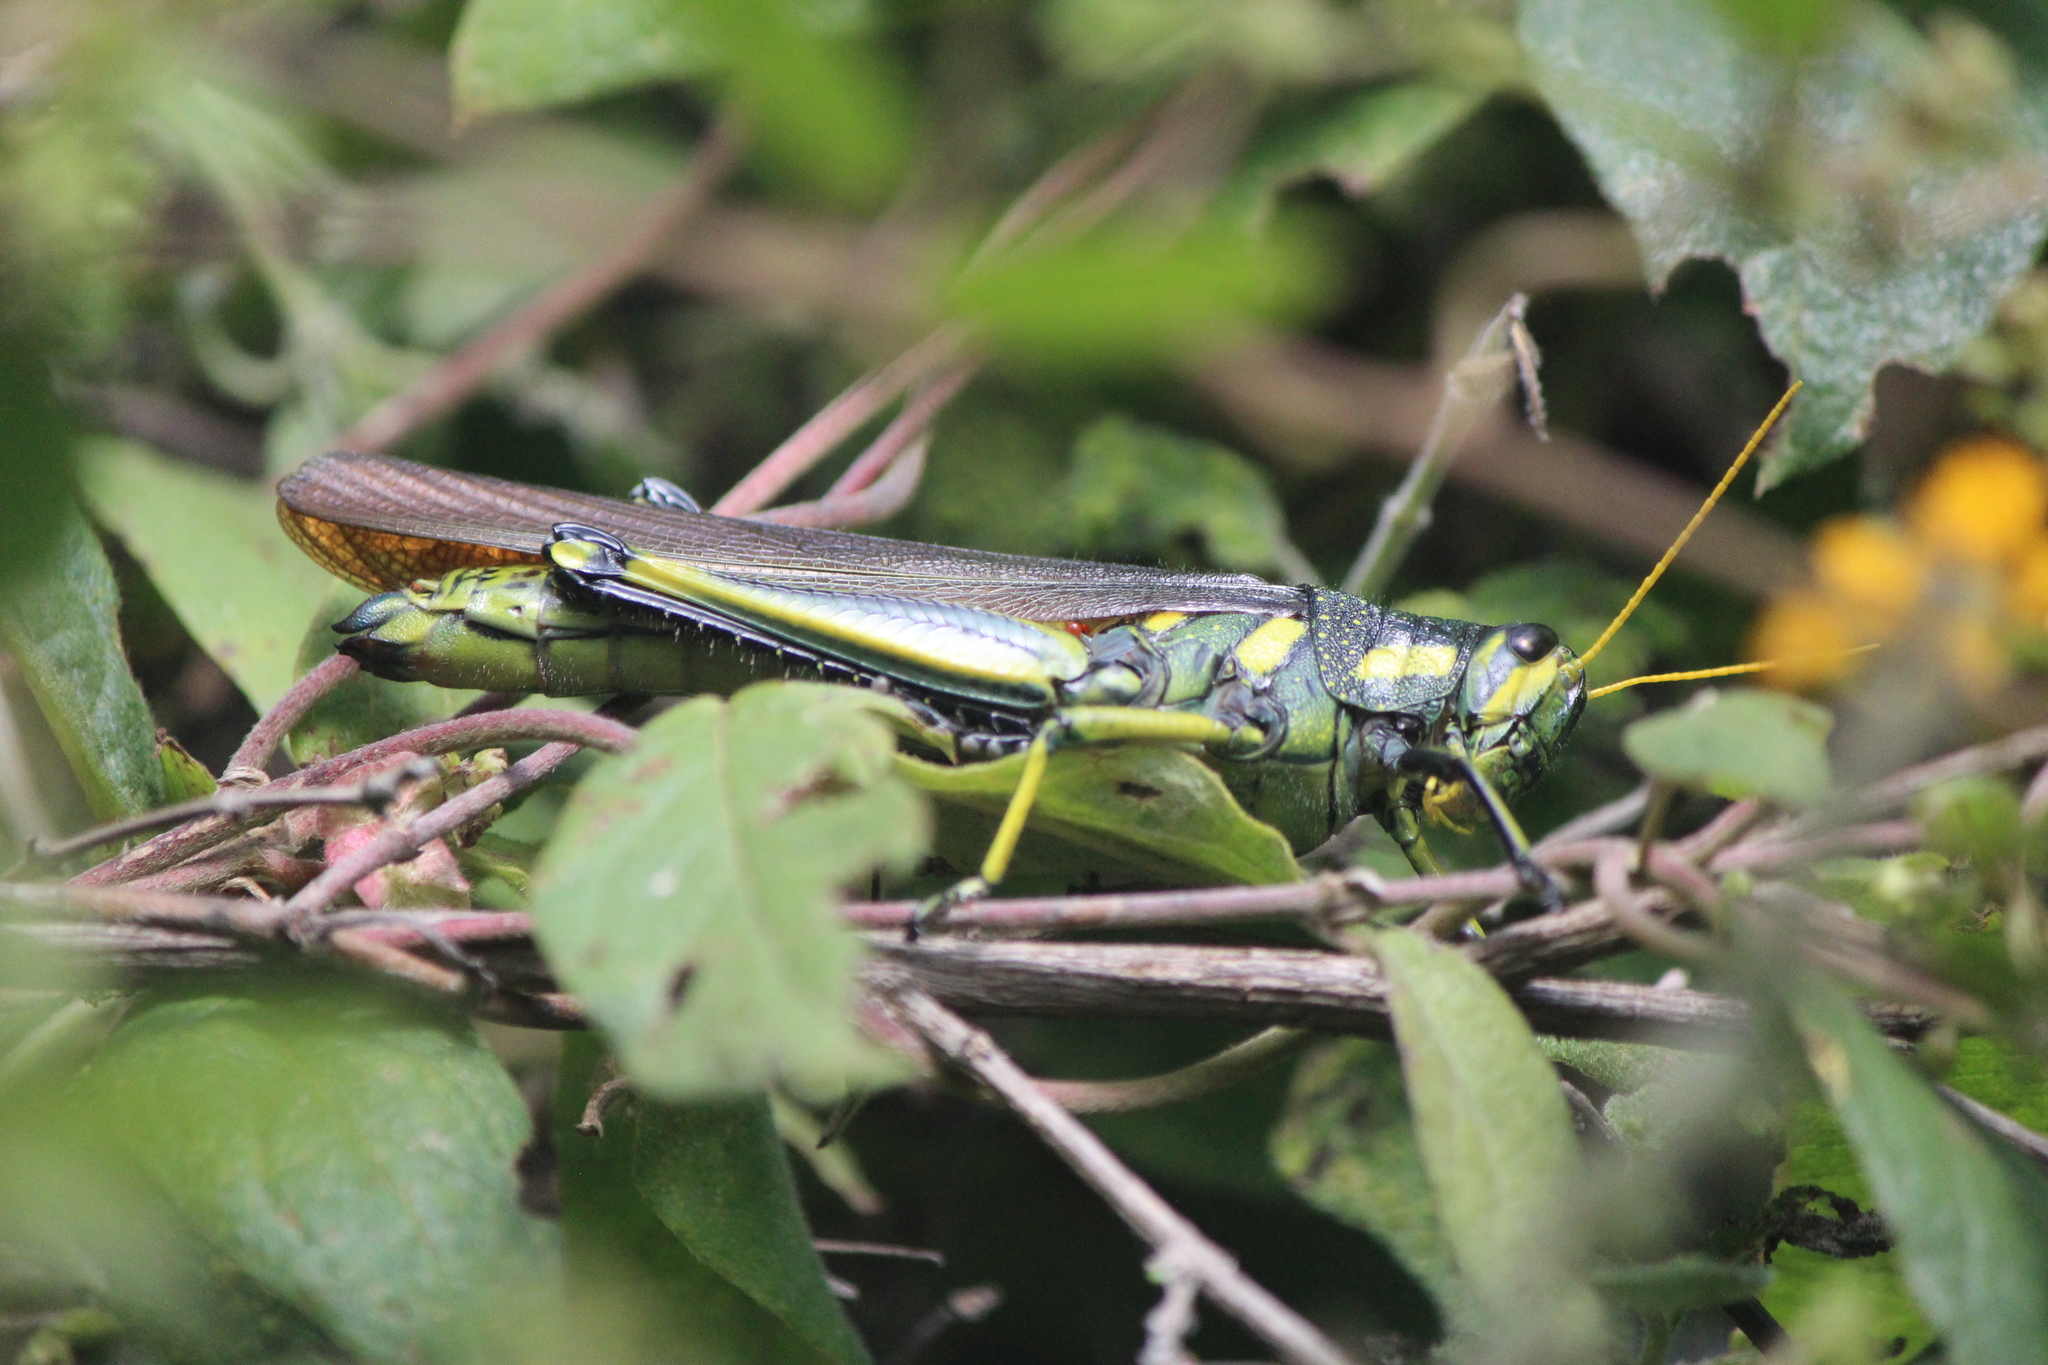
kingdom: Animalia
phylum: Arthropoda
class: Insecta
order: Orthoptera
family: Acrididae
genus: Schistocerca
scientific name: Schistocerca albolineata
